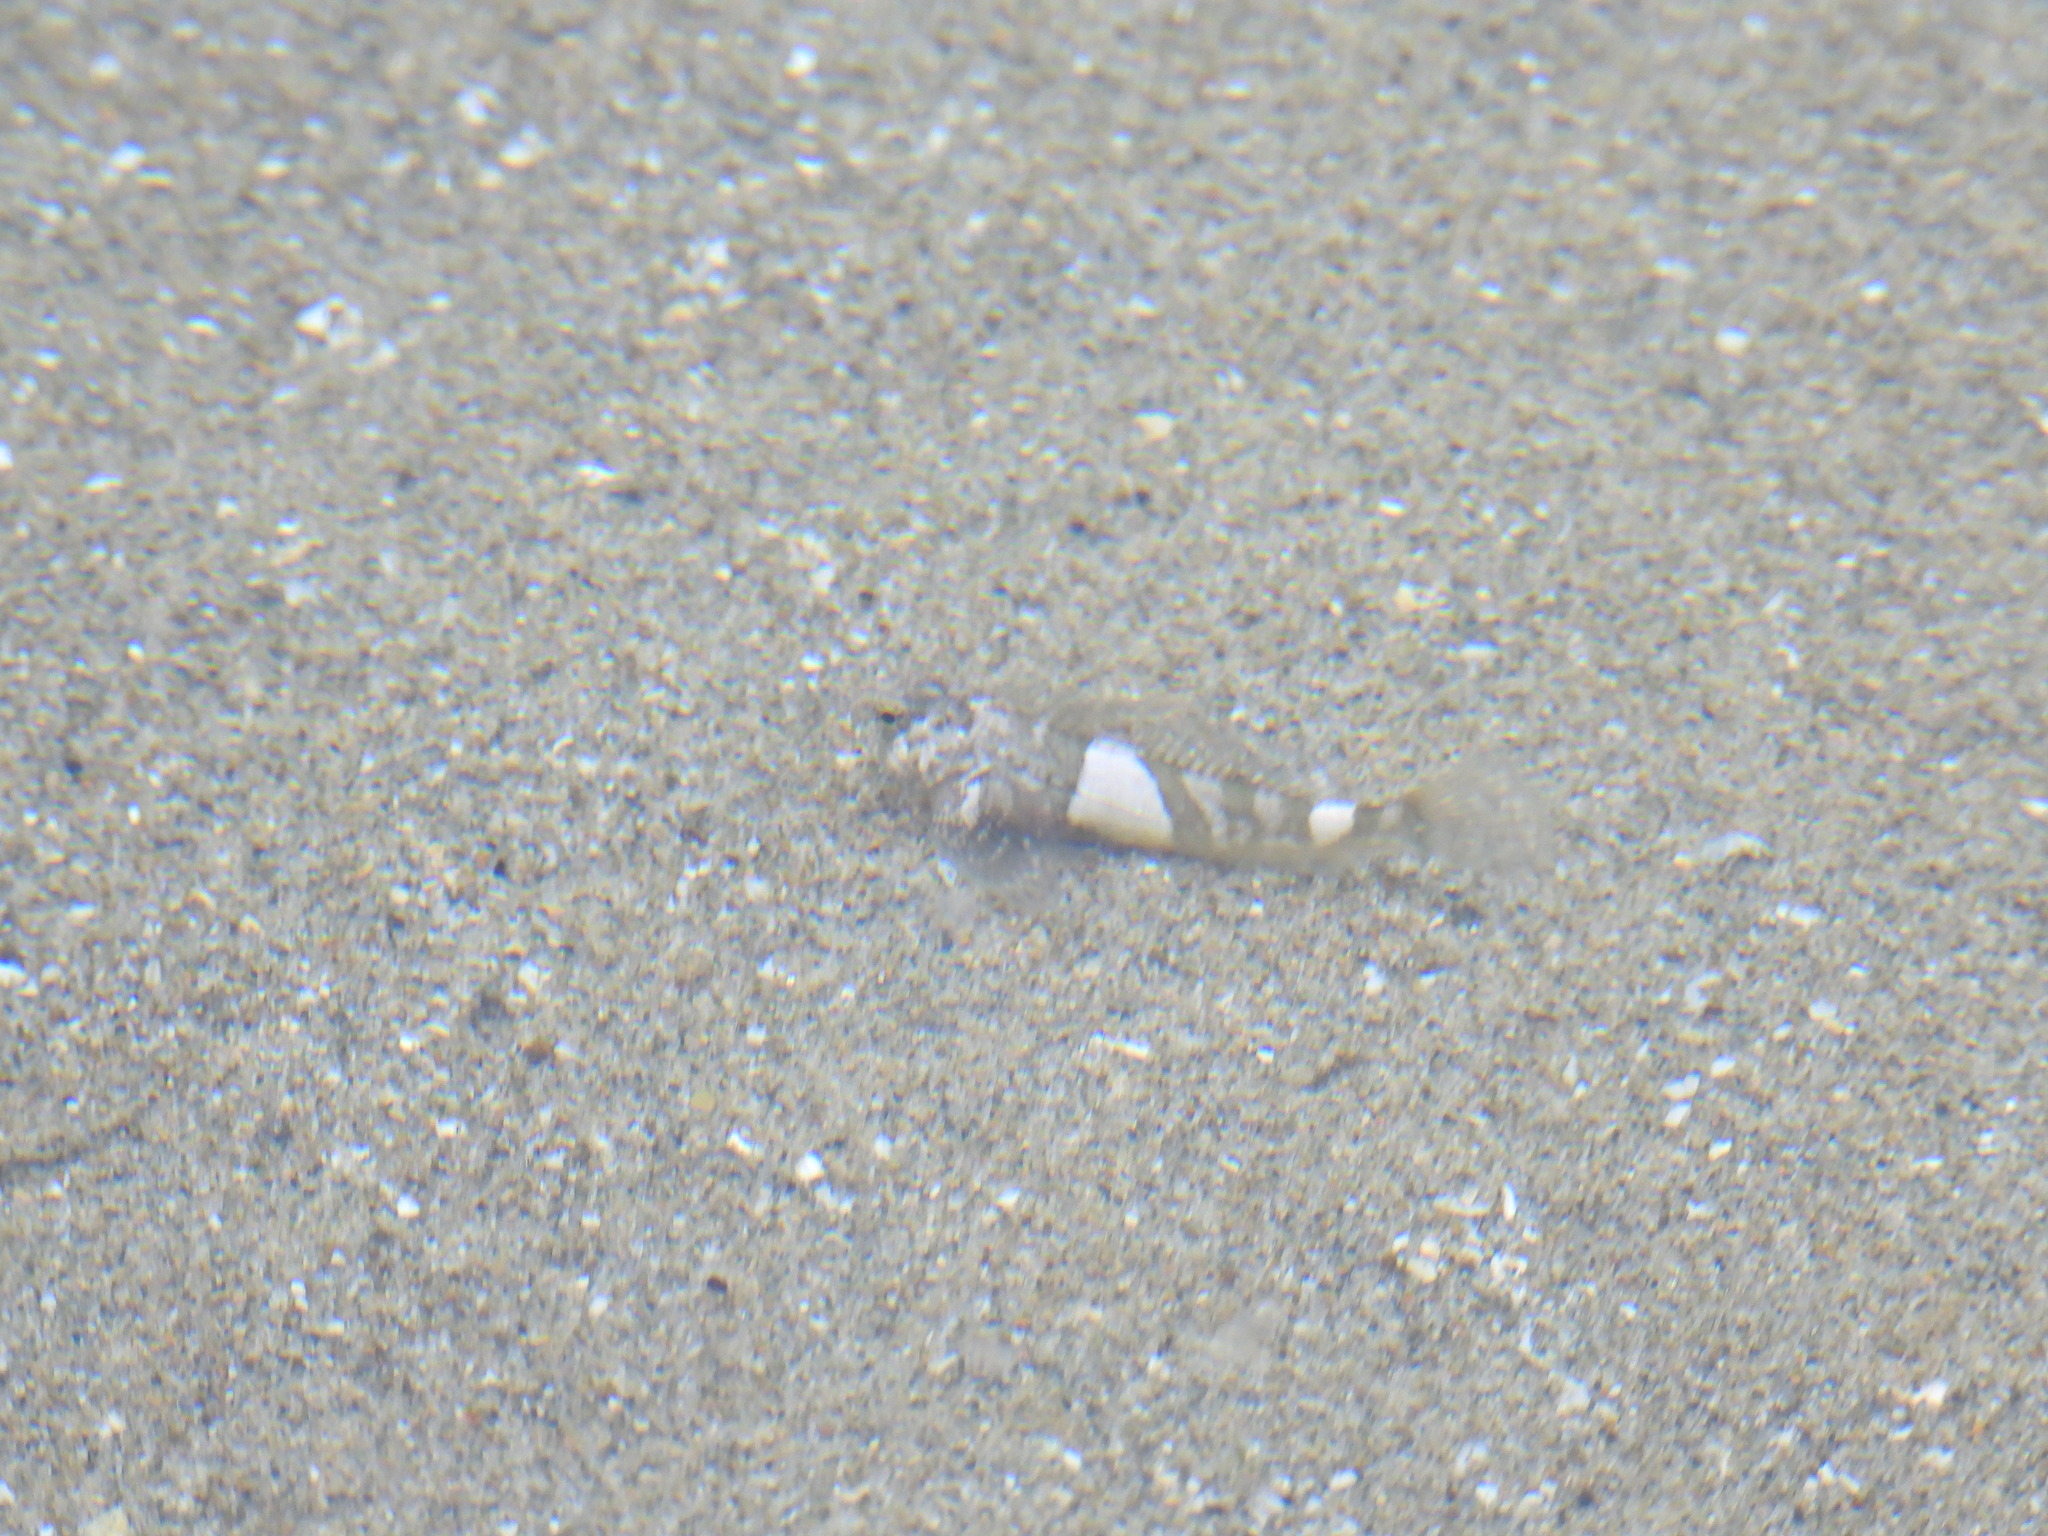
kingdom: Animalia
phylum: Chordata
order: Scorpaeniformes
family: Cottidae
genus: Clinocottus
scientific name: Clinocottus globiceps
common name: Mosshead sculpin
